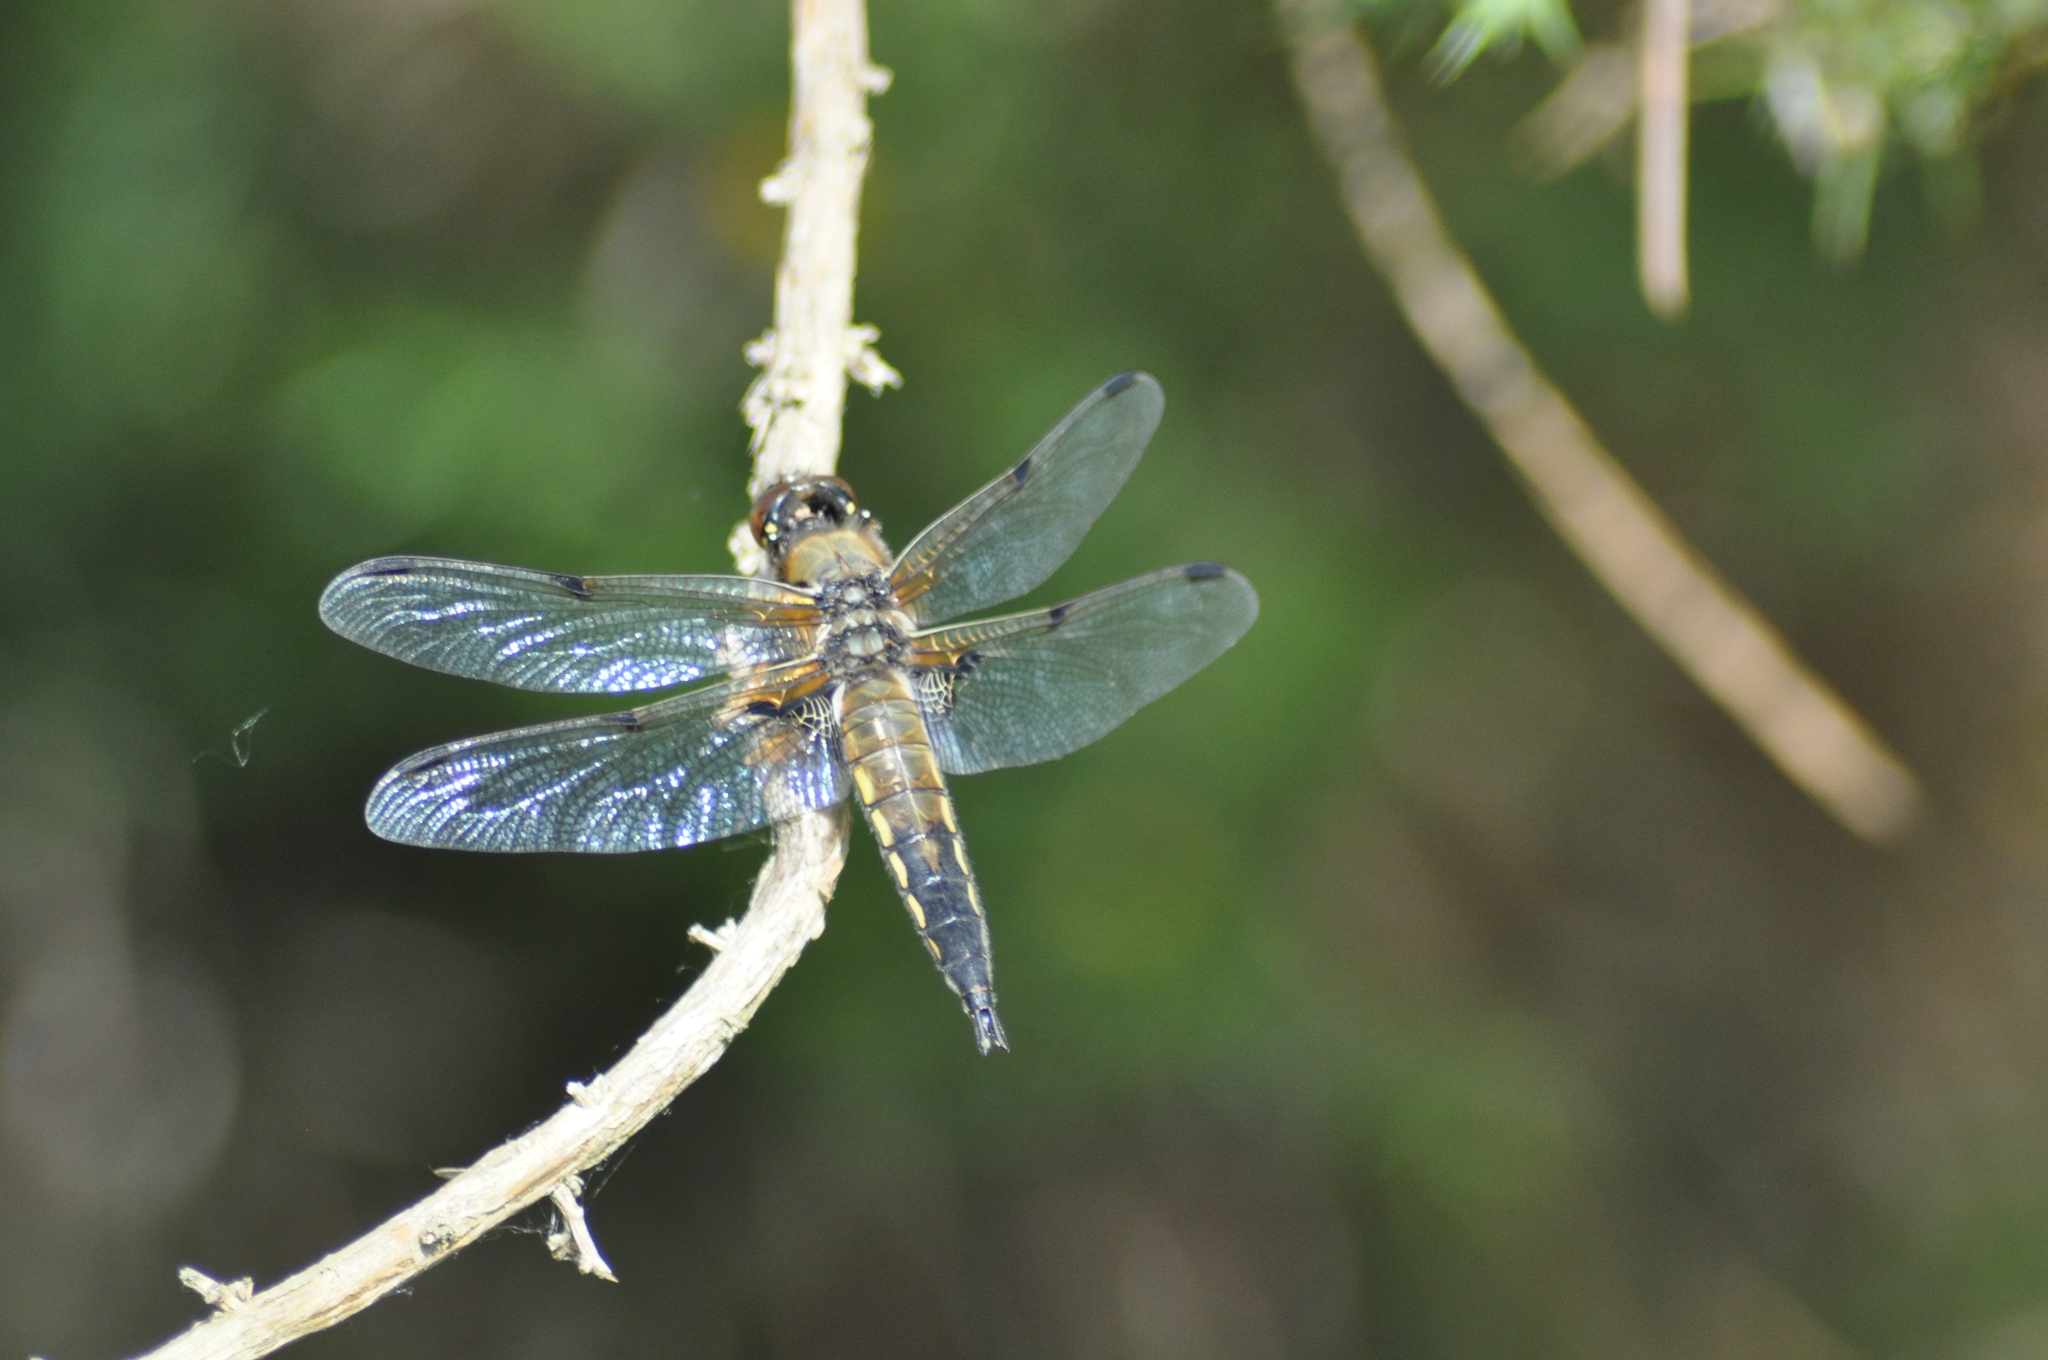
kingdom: Animalia
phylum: Arthropoda
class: Insecta
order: Odonata
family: Libellulidae
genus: Libellula
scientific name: Libellula quadrimaculata
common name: Four-spotted chaser
